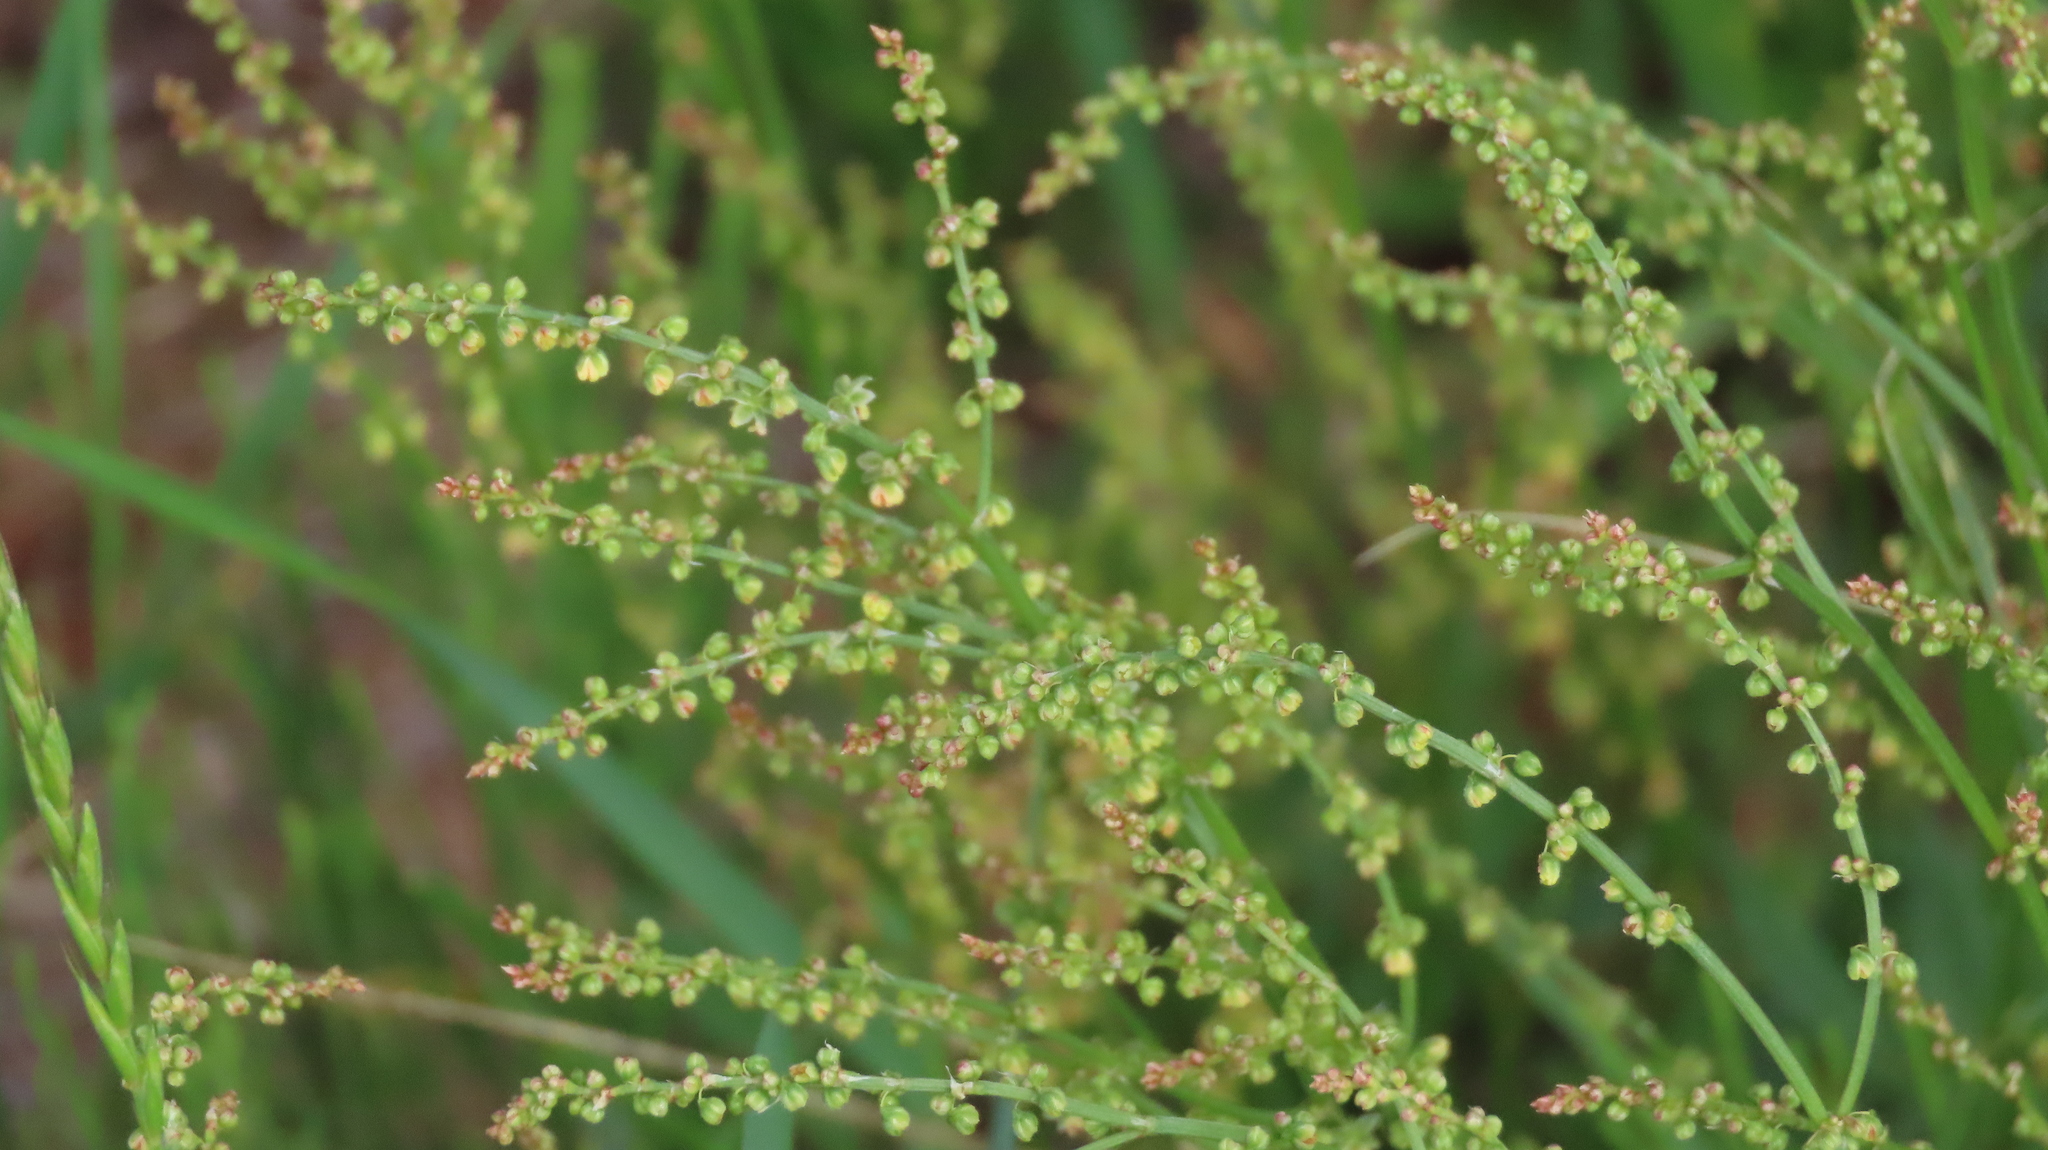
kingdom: Plantae
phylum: Tracheophyta
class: Magnoliopsida
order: Caryophyllales
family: Polygonaceae
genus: Rumex
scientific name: Rumex acetosella
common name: Common sheep sorrel
